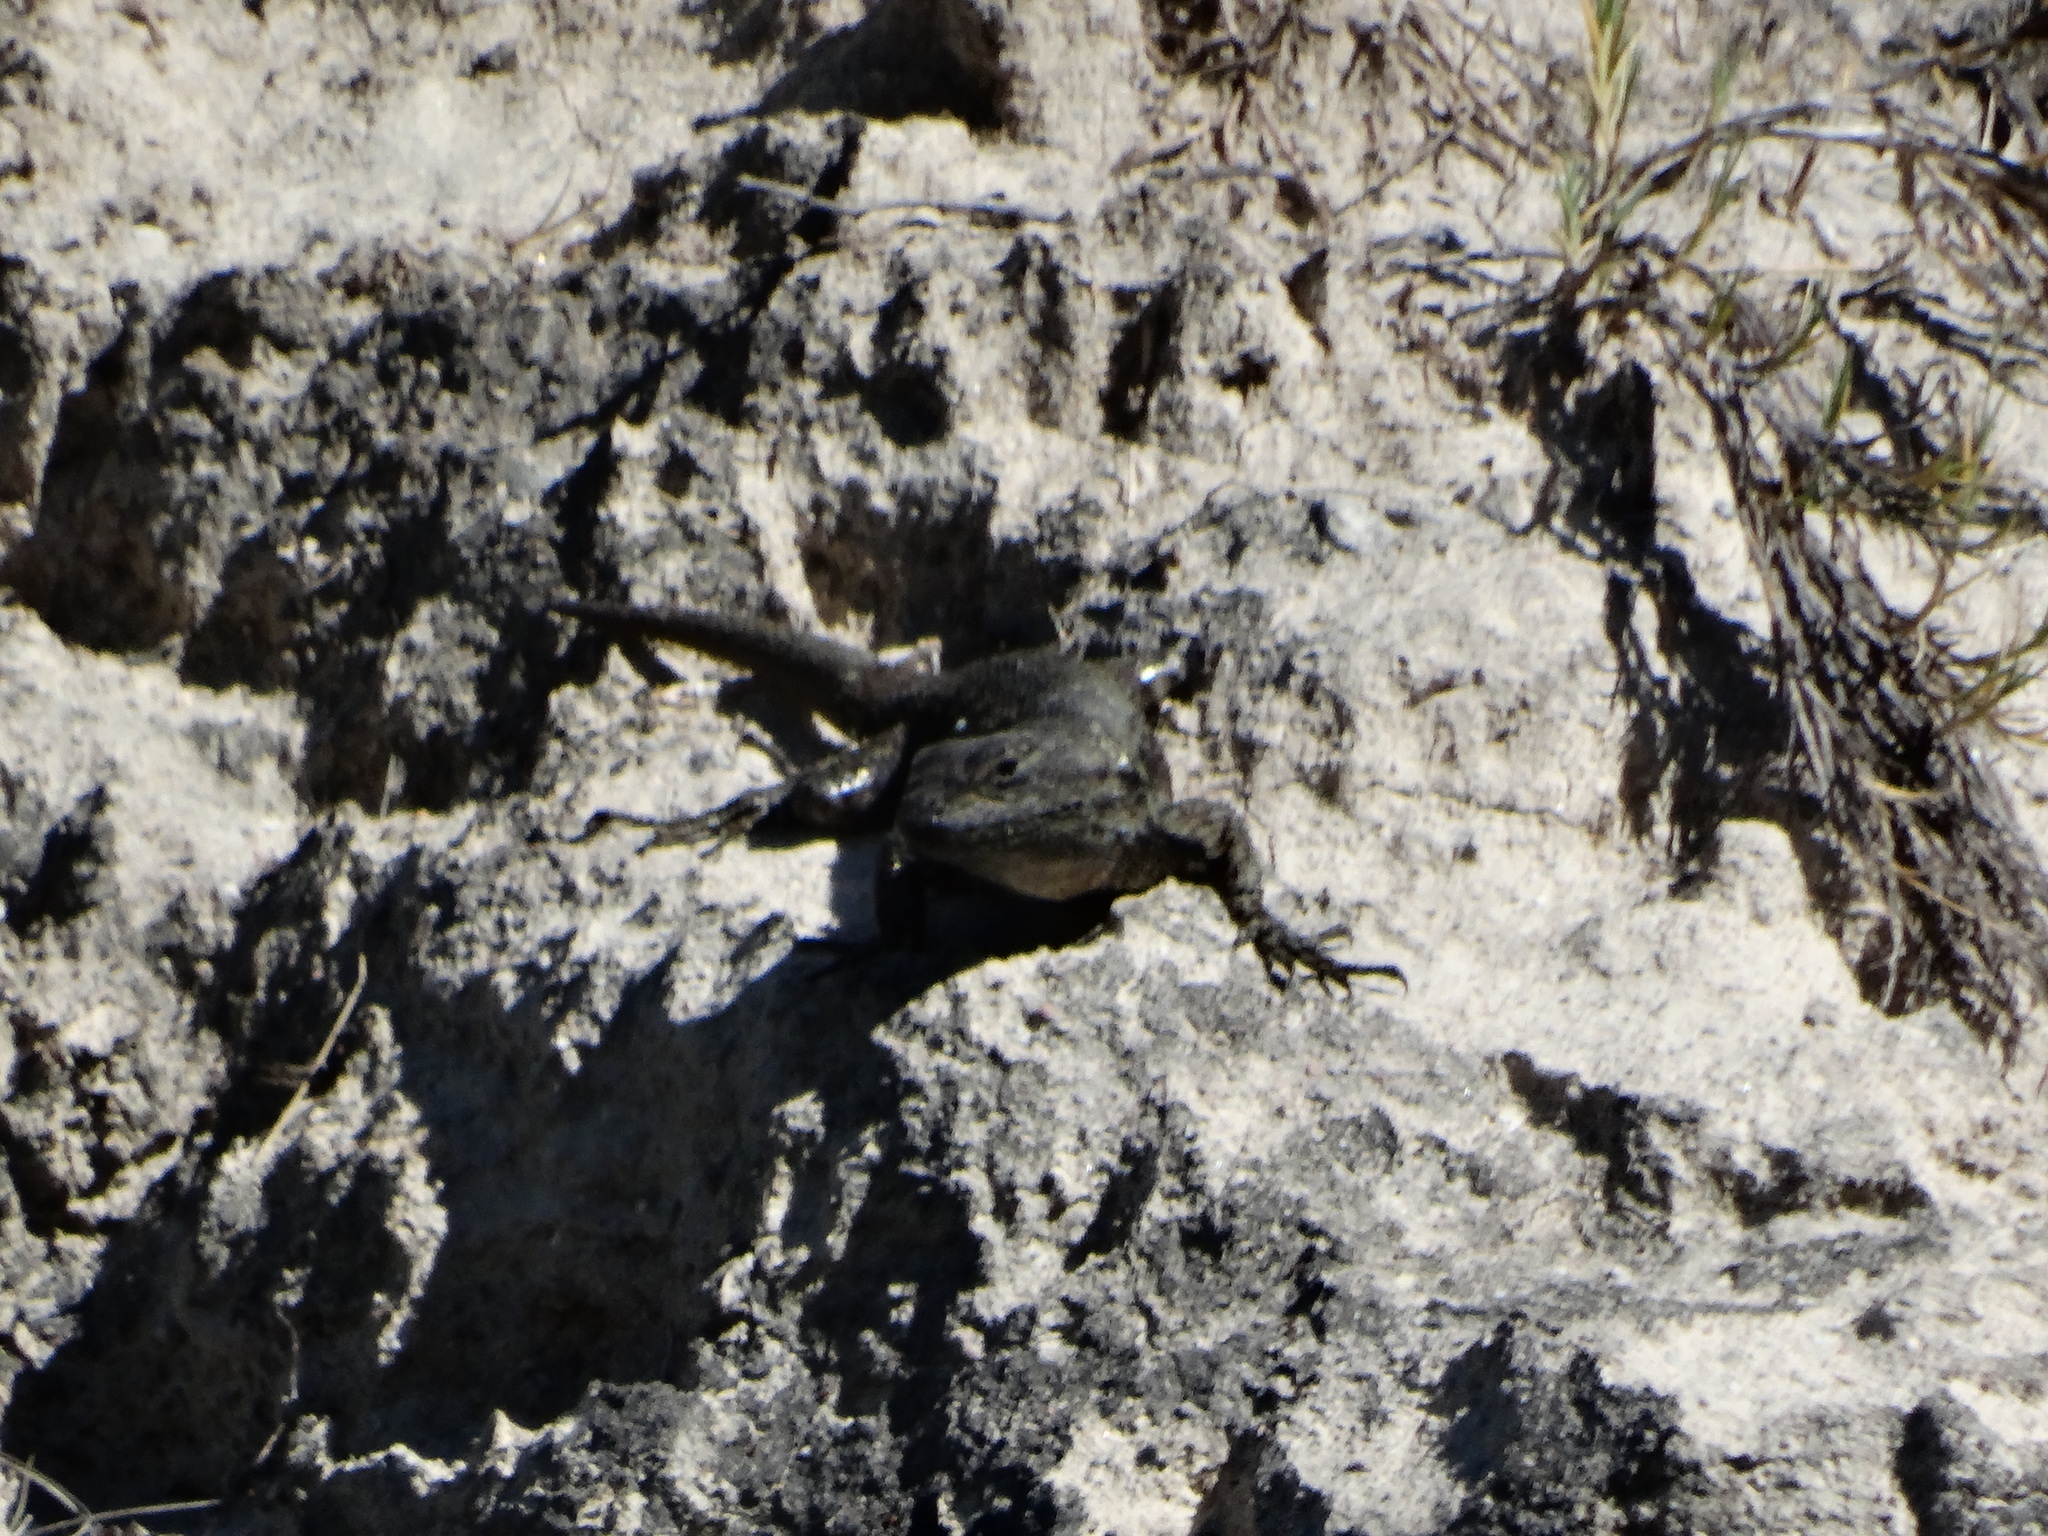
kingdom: Animalia
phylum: Chordata
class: Squamata
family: Phrynosomatidae
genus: Sceloporus
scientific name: Sceloporus grammicus
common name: Mesquite lizard
